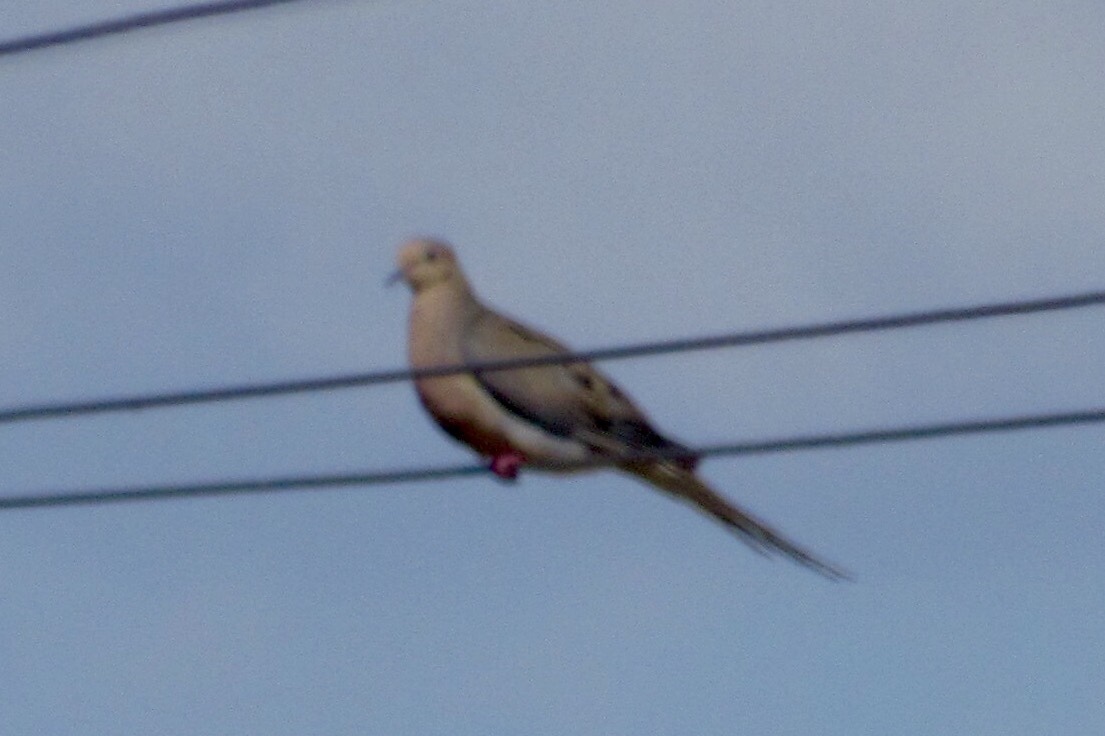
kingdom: Animalia
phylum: Chordata
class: Aves
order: Columbiformes
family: Columbidae
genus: Zenaida
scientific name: Zenaida macroura
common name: Mourning dove
